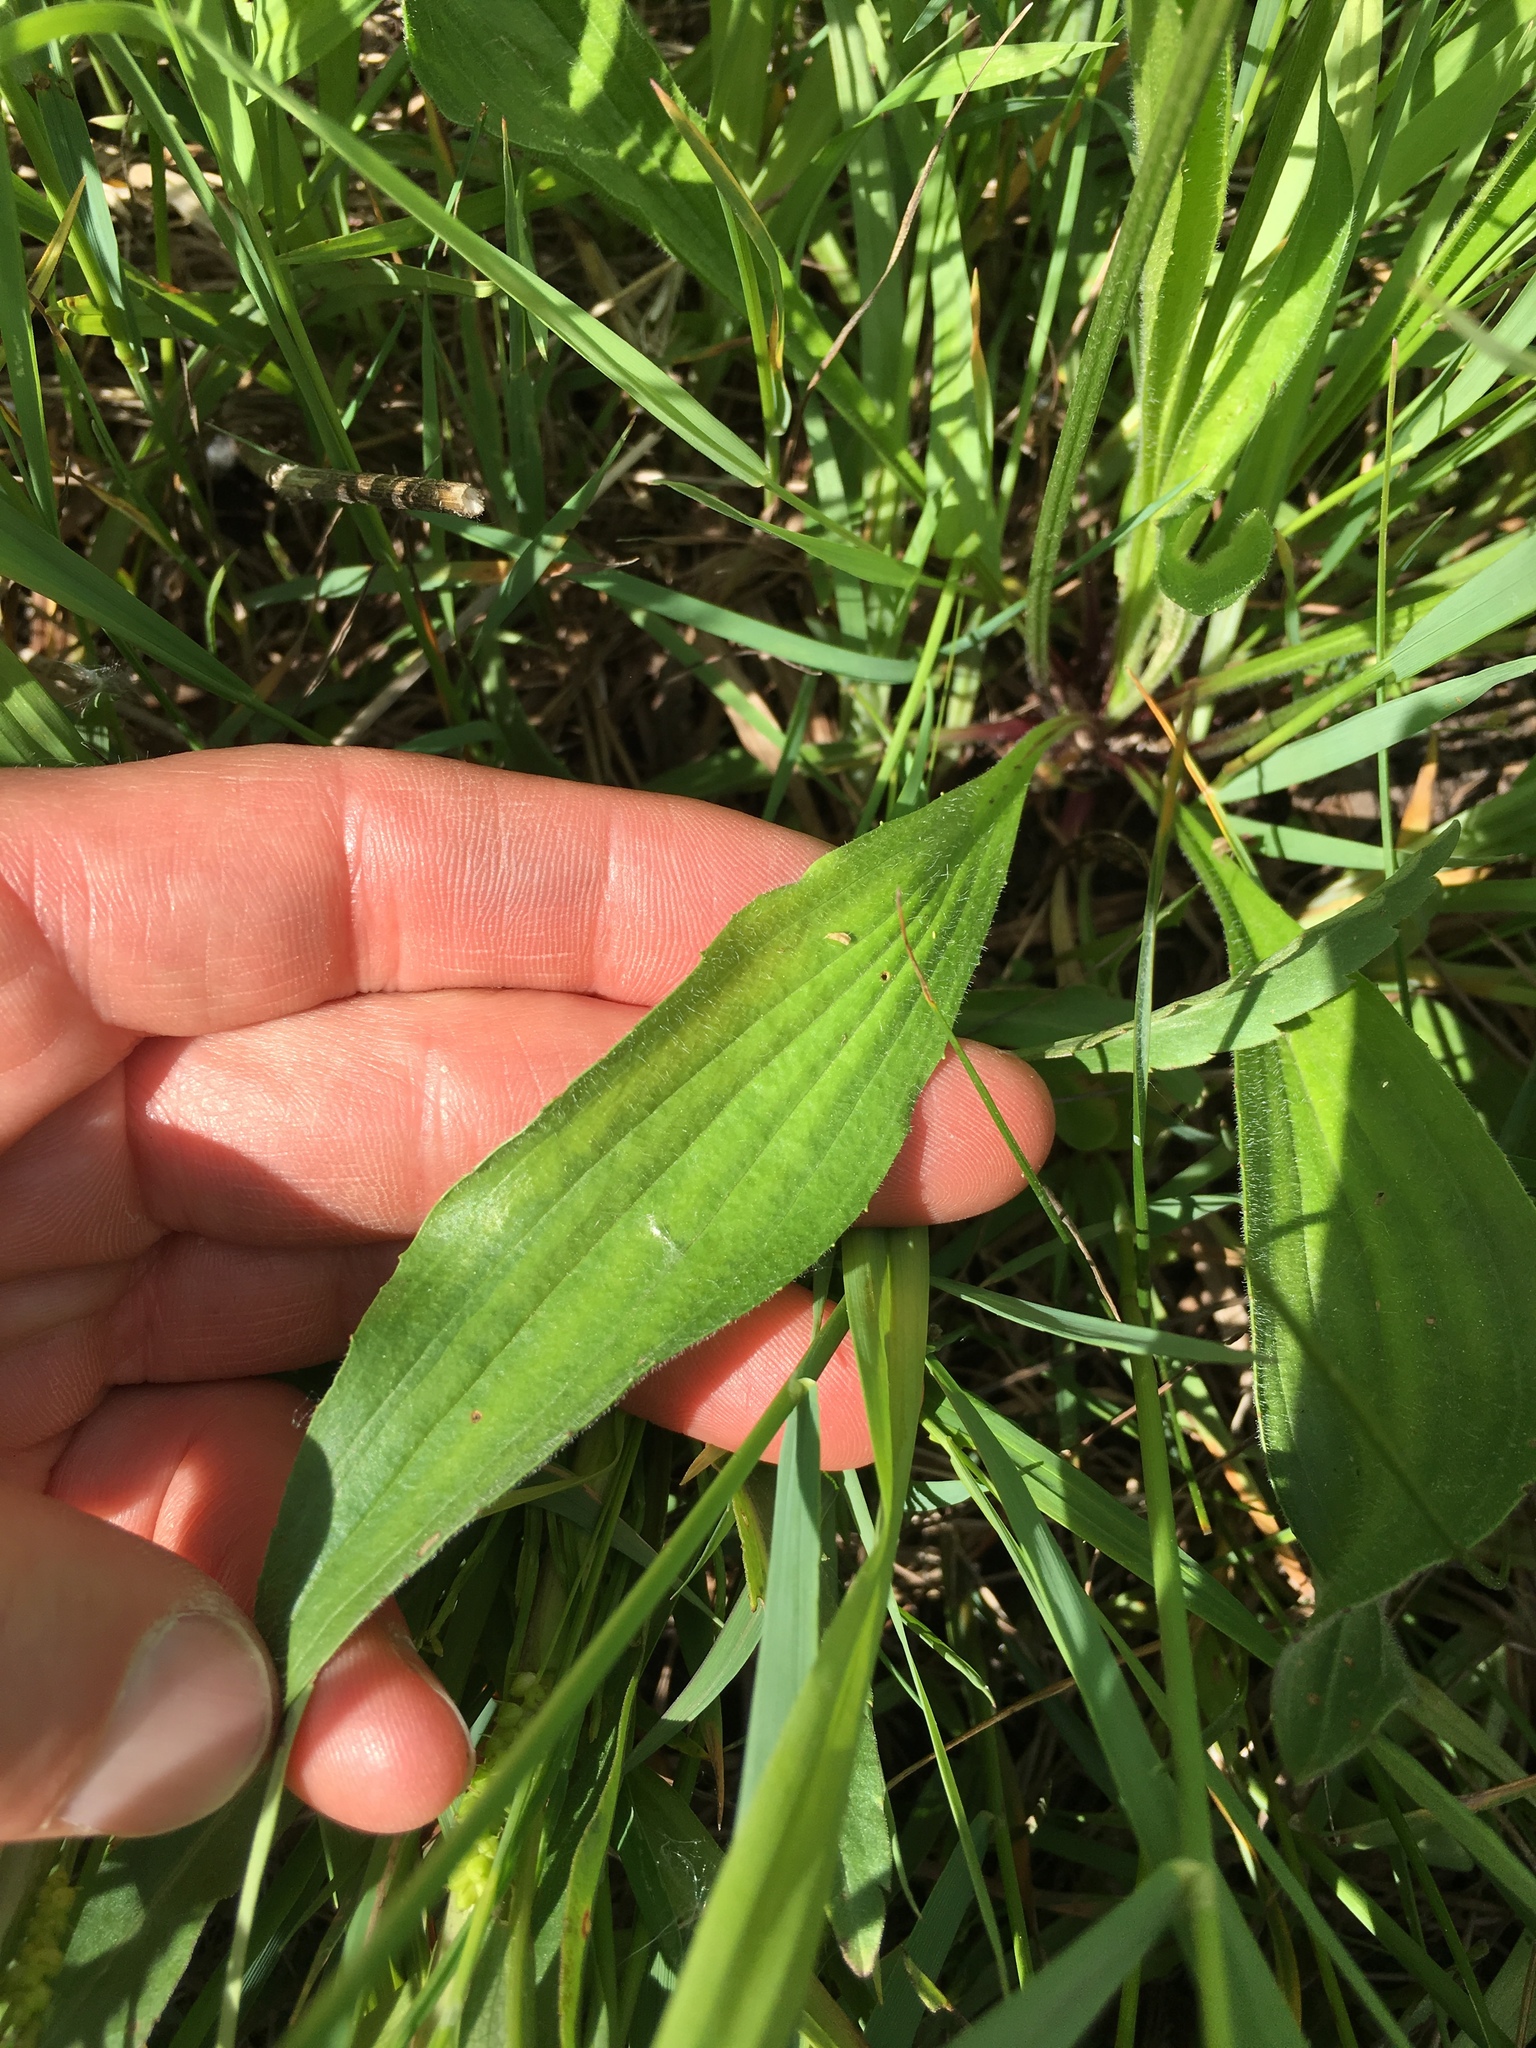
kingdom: Plantae
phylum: Tracheophyta
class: Magnoliopsida
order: Lamiales
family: Plantaginaceae
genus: Plantago
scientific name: Plantago lanceolata
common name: Ribwort plantain
